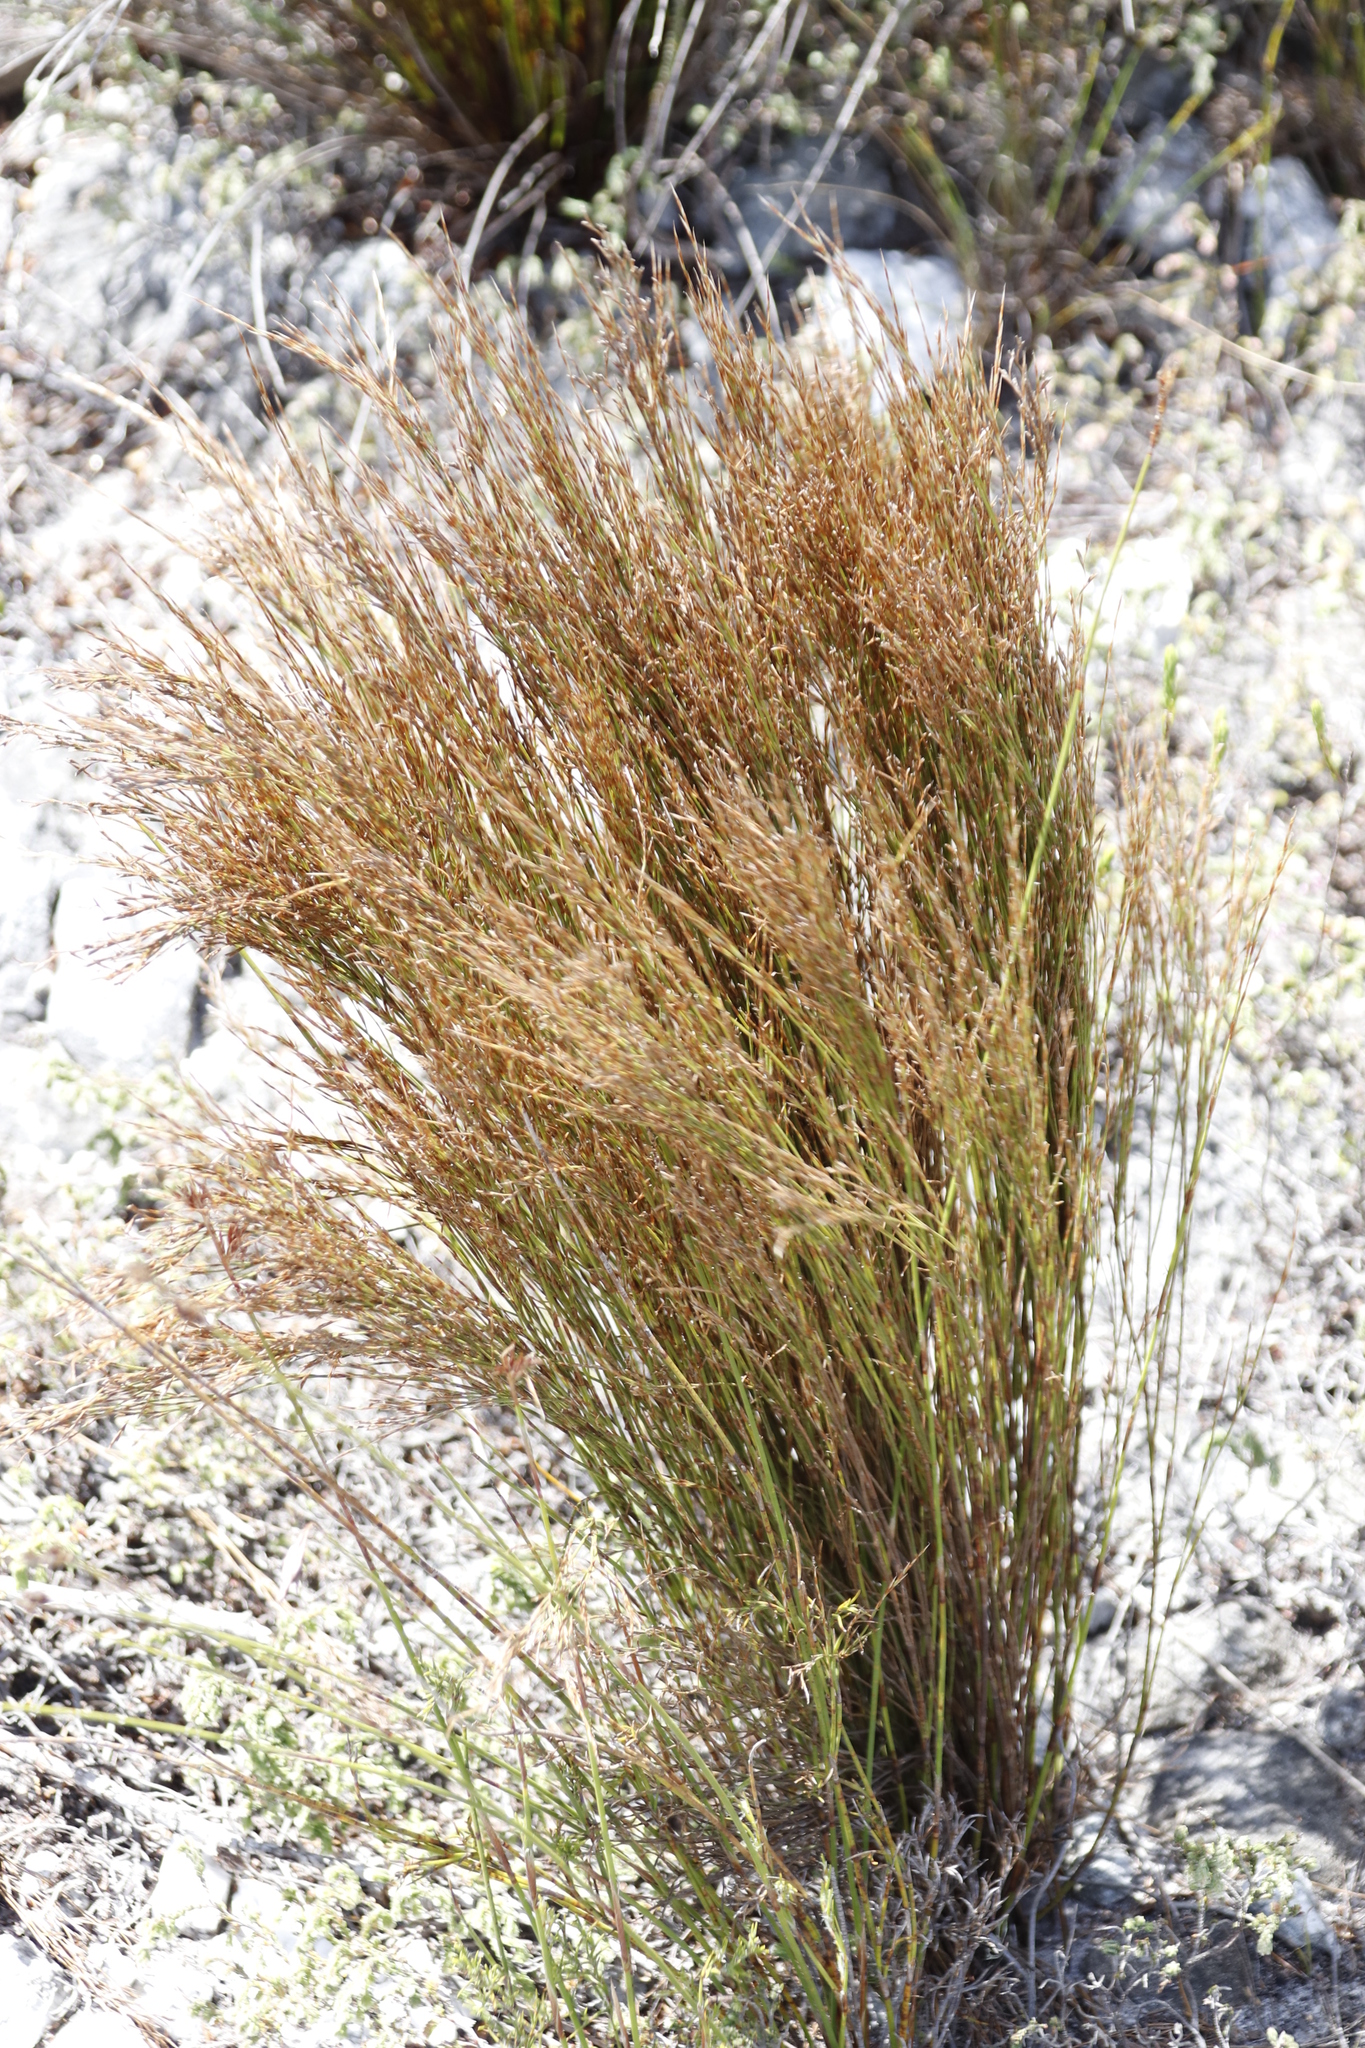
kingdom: Plantae
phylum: Tracheophyta
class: Liliopsida
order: Poales
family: Restionaceae
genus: Restio
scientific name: Restio festuciformis
